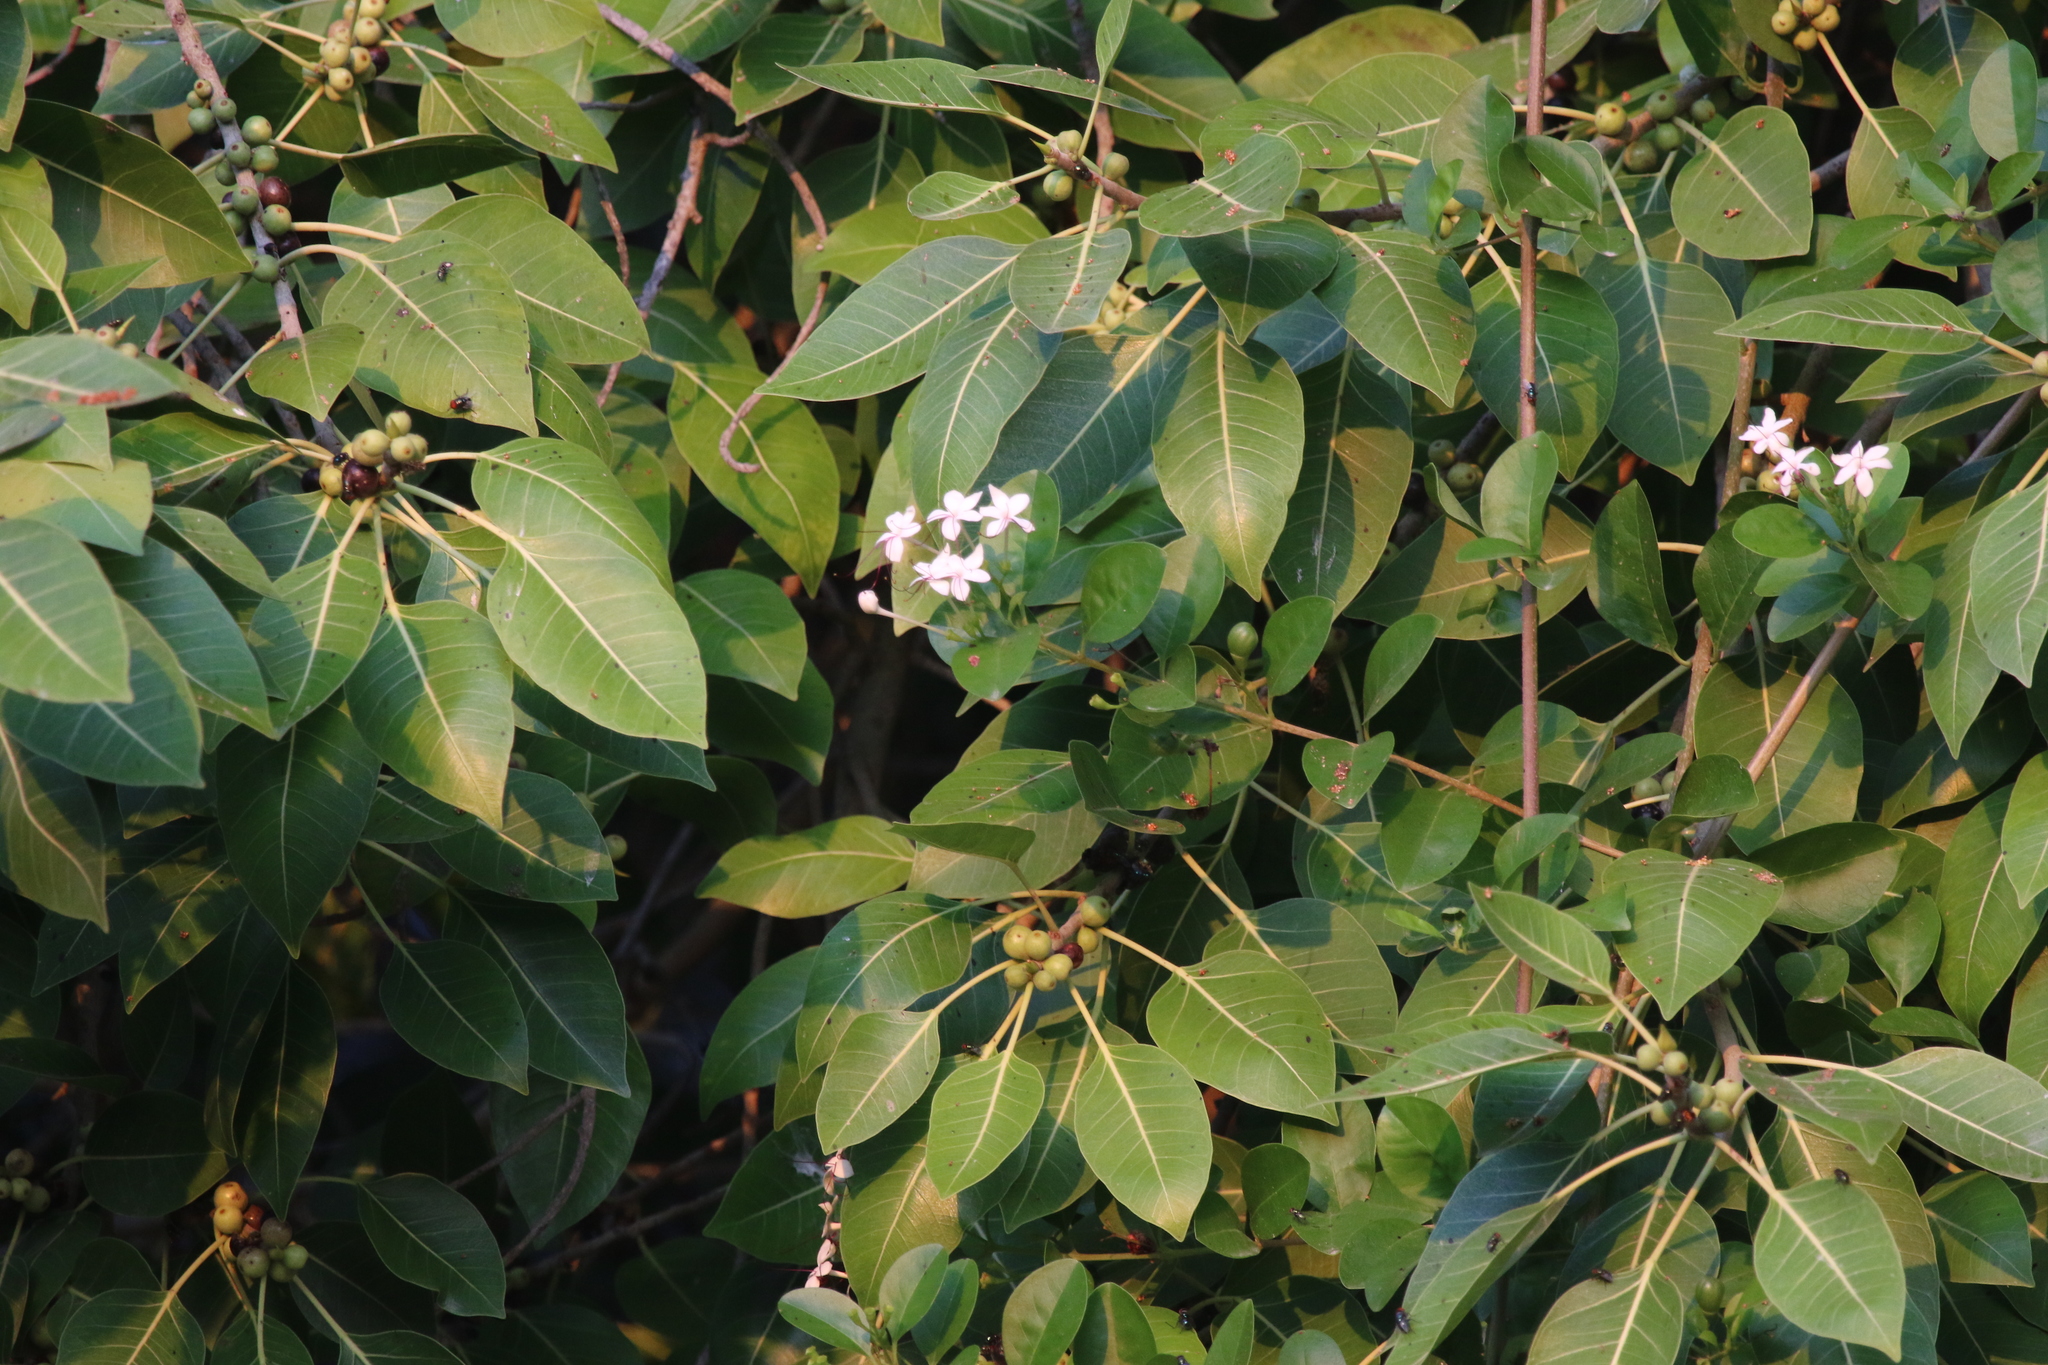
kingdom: Plantae
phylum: Tracheophyta
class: Magnoliopsida
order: Lamiales
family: Lamiaceae
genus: Volkameria
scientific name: Volkameria inermis
